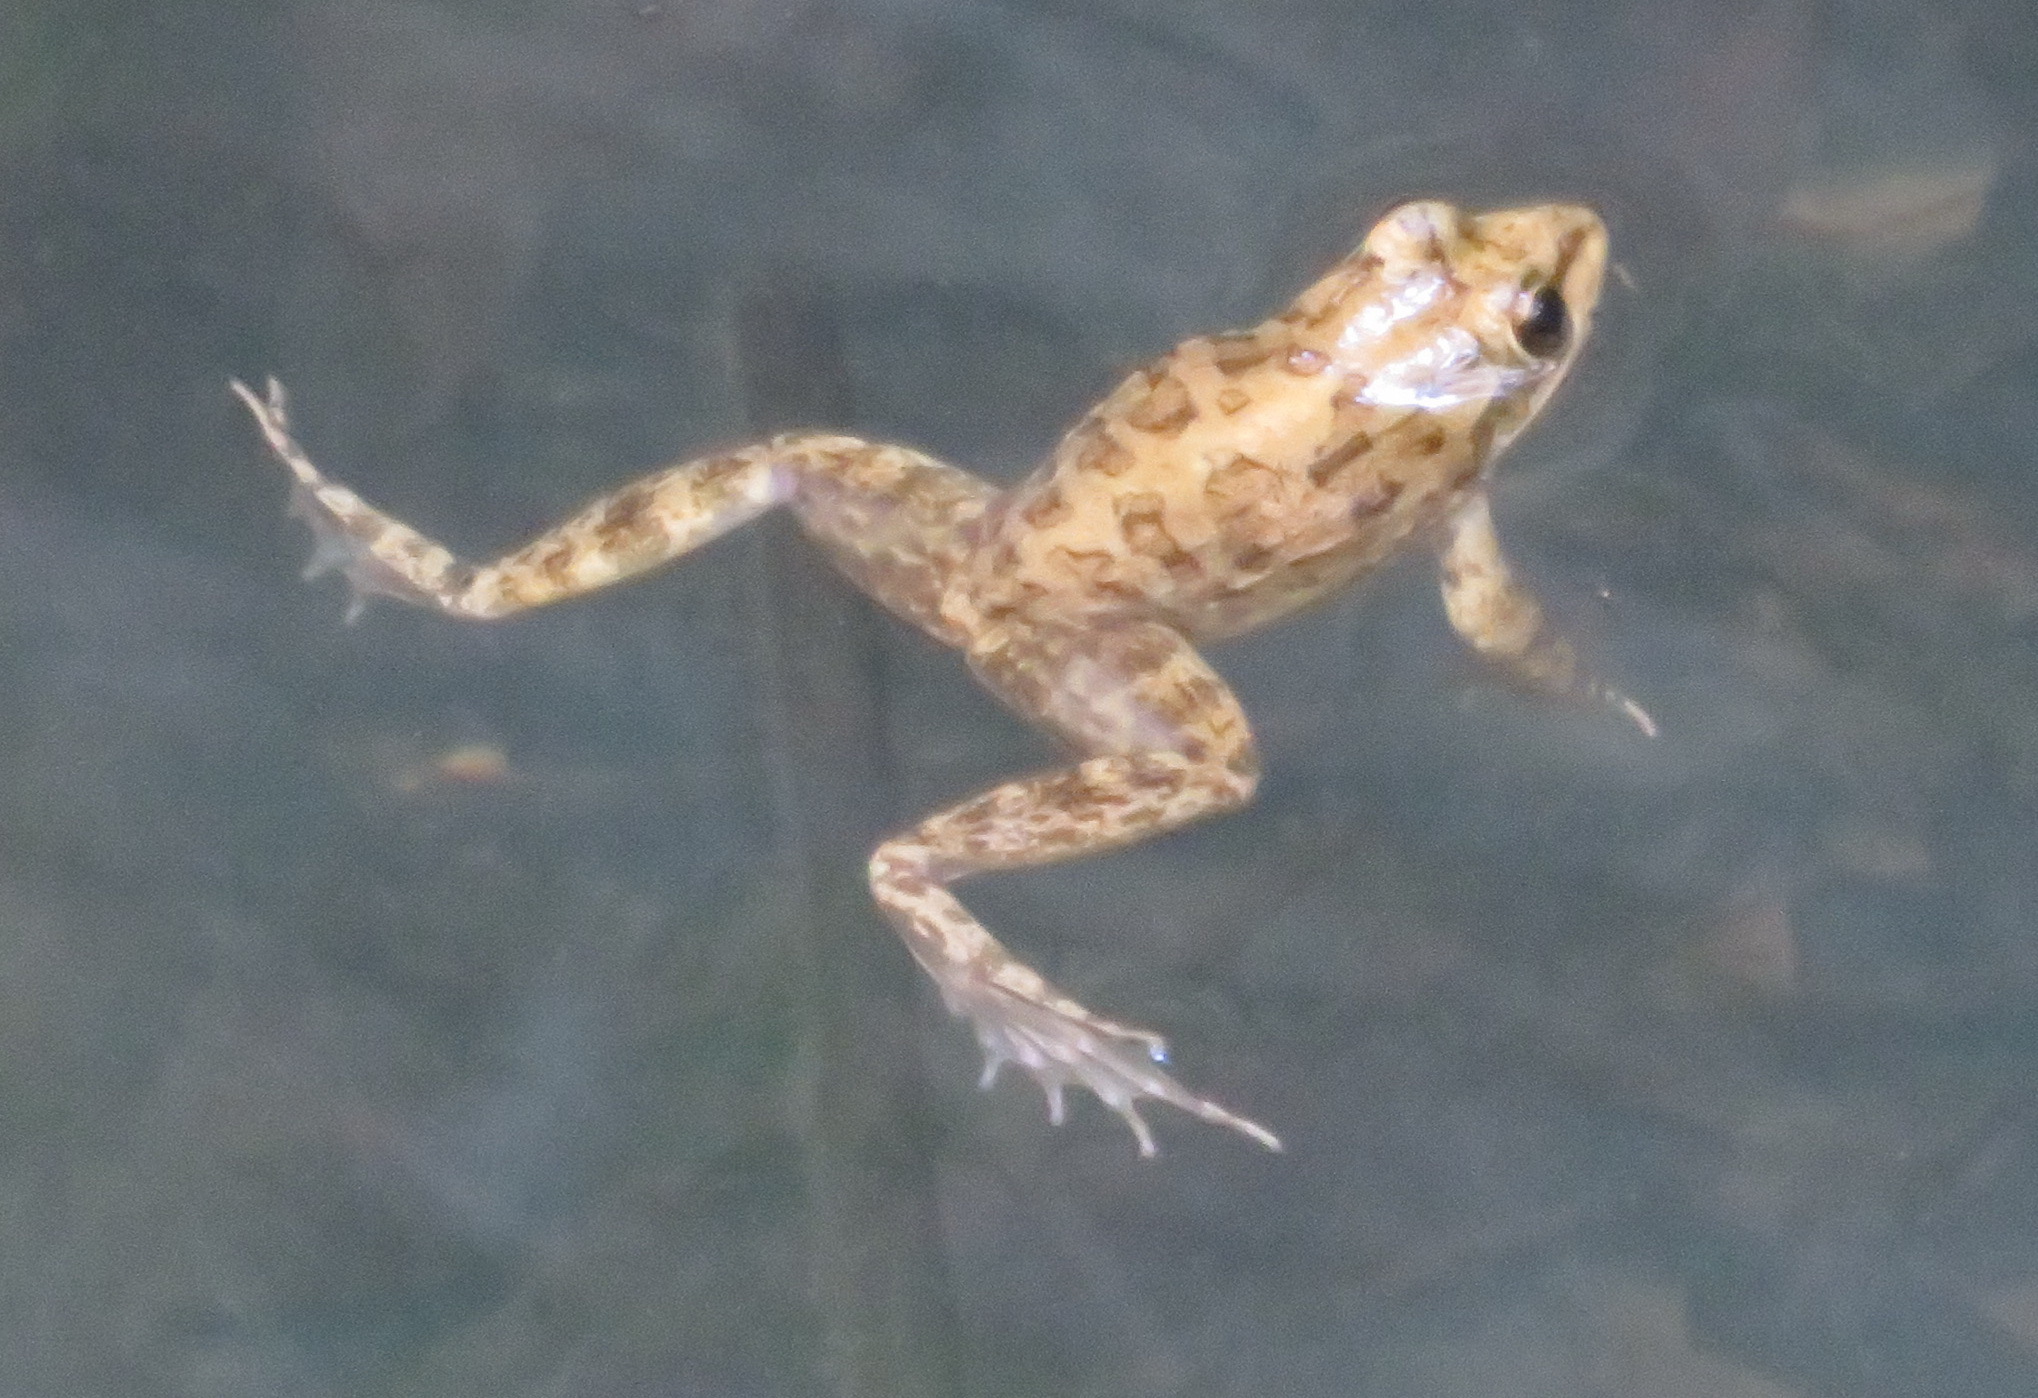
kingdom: Animalia
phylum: Chordata
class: Amphibia
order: Anura
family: Pyxicephalidae
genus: Amietia
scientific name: Amietia fuscigula
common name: Cape rana
